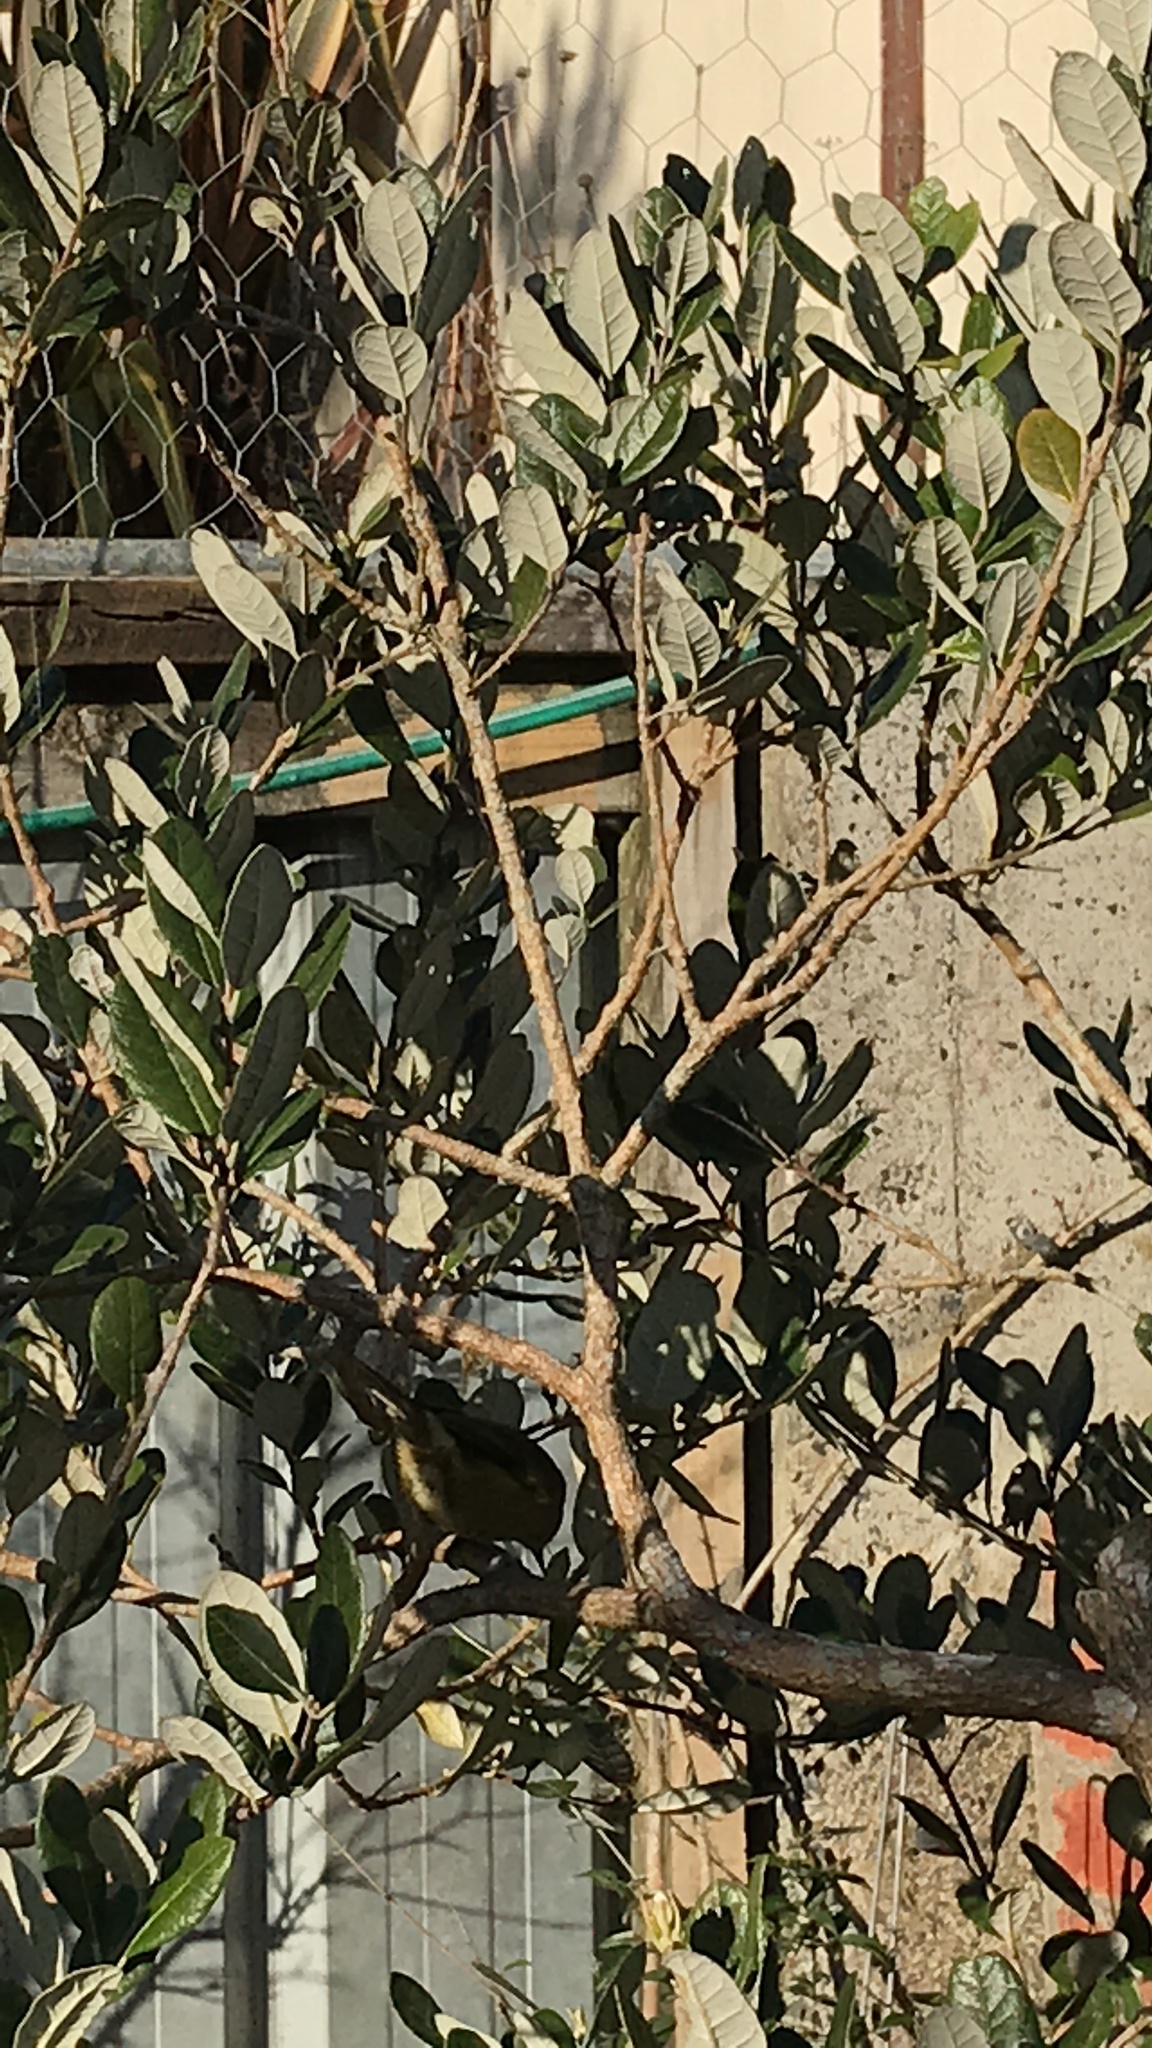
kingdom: Animalia
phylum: Chordata
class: Aves
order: Passeriformes
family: Meliphagidae
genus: Anthornis
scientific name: Anthornis melanura
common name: New zealand bellbird
